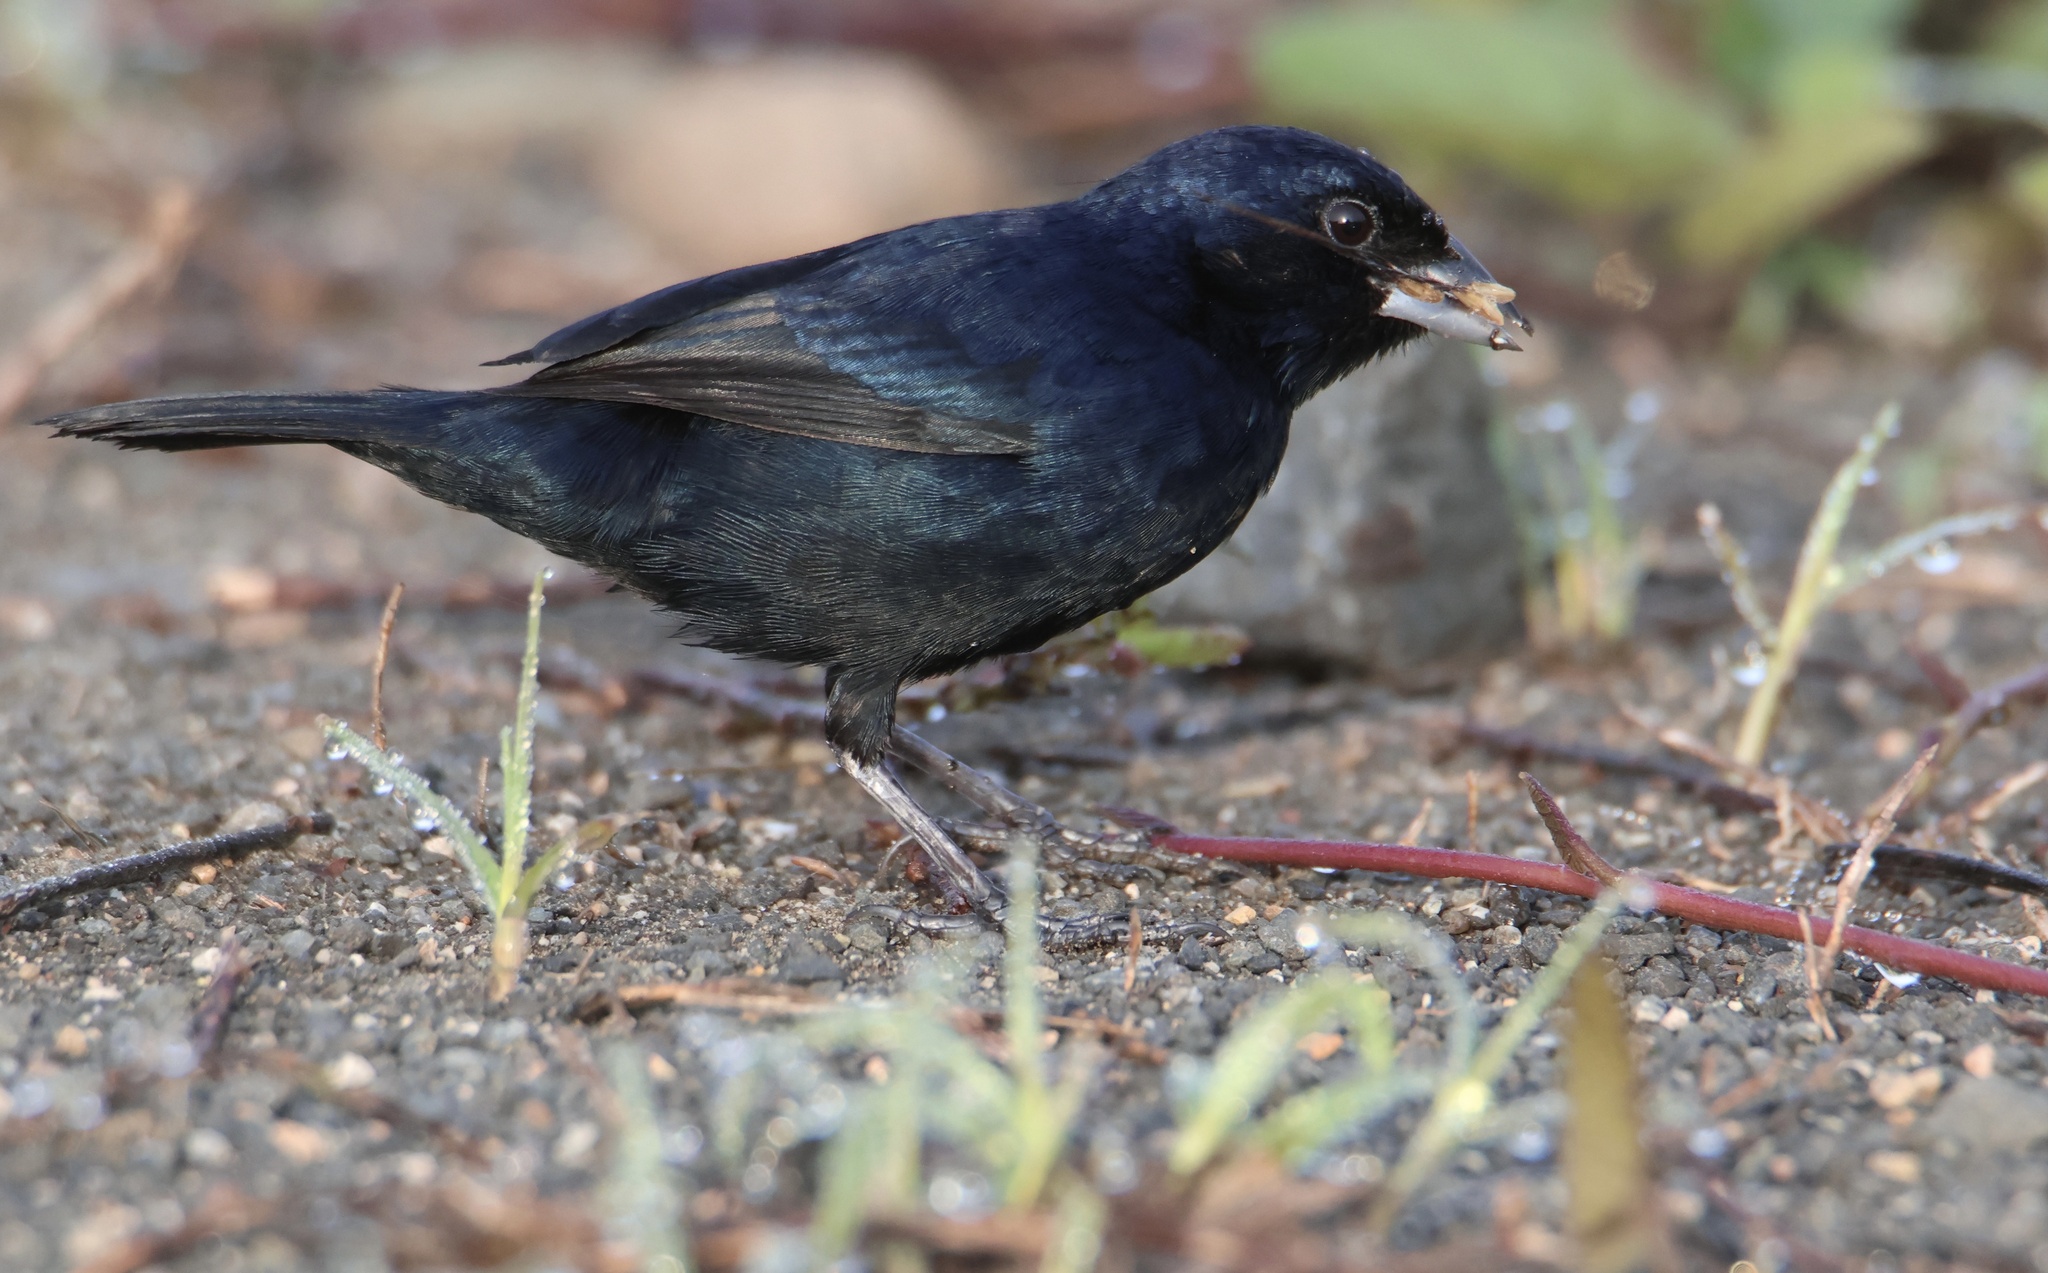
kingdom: Animalia
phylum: Chordata
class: Aves
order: Passeriformes
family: Thraupidae
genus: Volatinia
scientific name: Volatinia jacarina
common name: Blue-black grassquit
